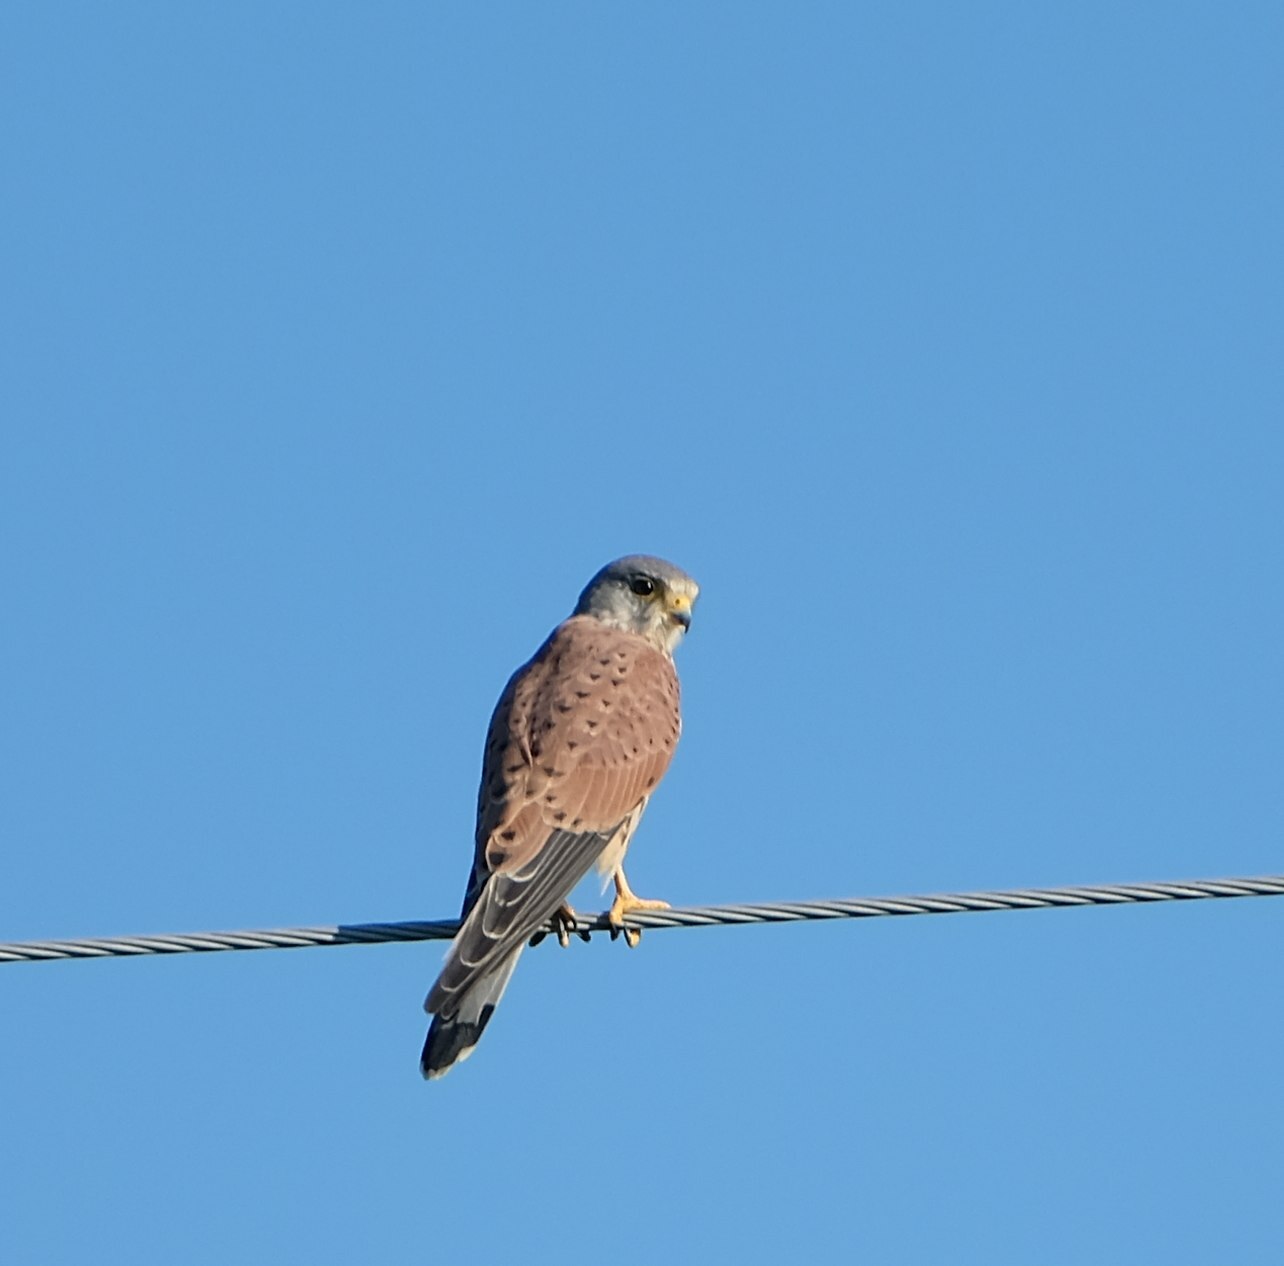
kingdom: Animalia
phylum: Chordata
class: Aves
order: Falconiformes
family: Falconidae
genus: Falco
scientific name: Falco tinnunculus
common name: Common kestrel
